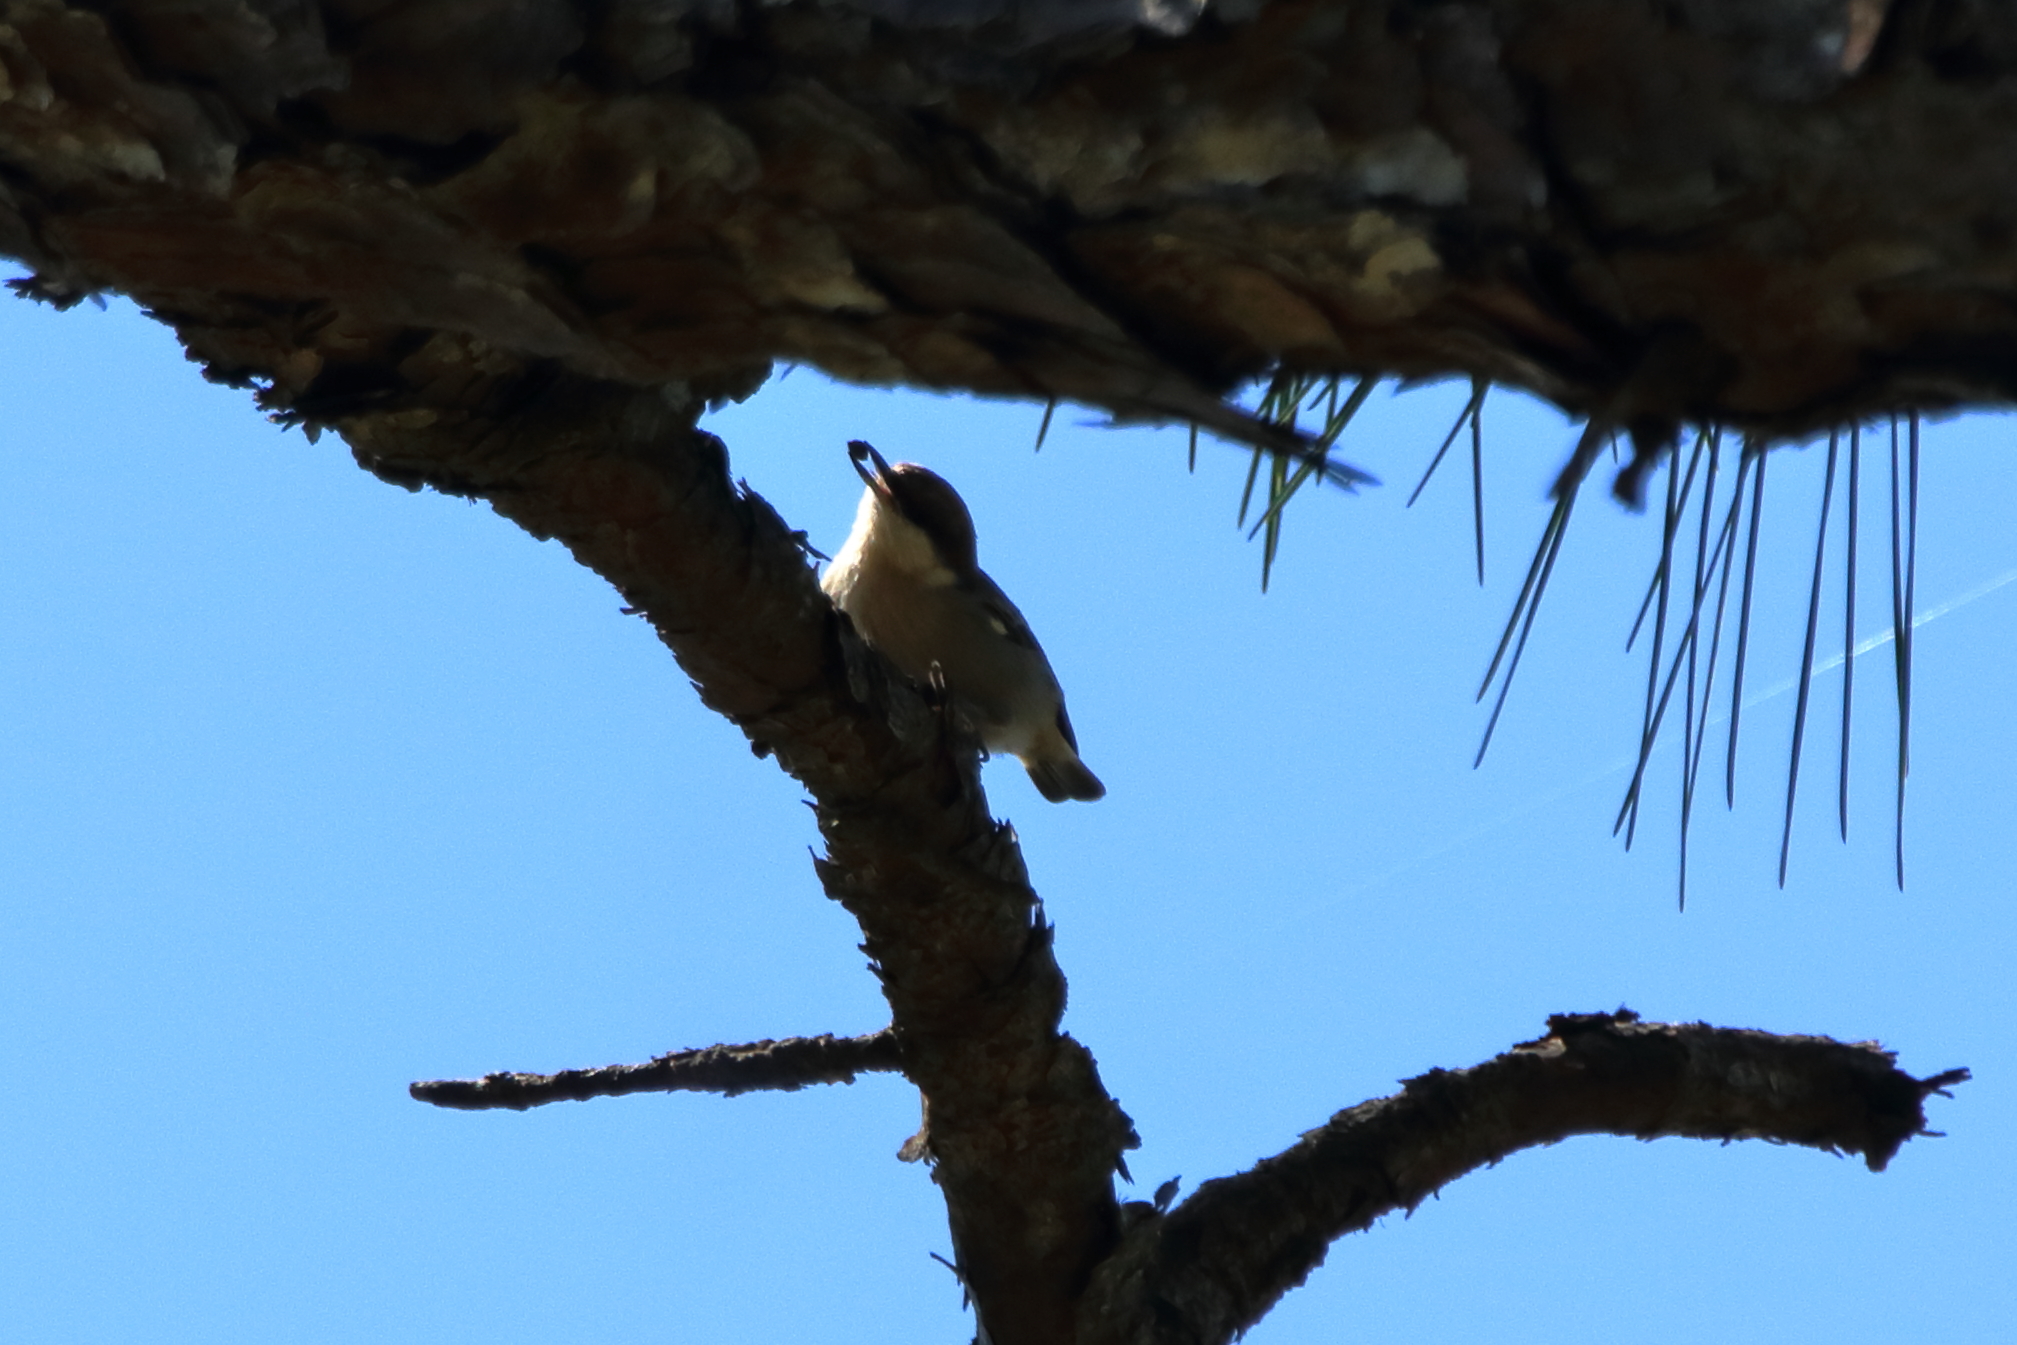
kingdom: Animalia
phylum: Chordata
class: Aves
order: Passeriformes
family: Sittidae
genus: Sitta
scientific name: Sitta pusilla
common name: Brown-headed nuthatch
